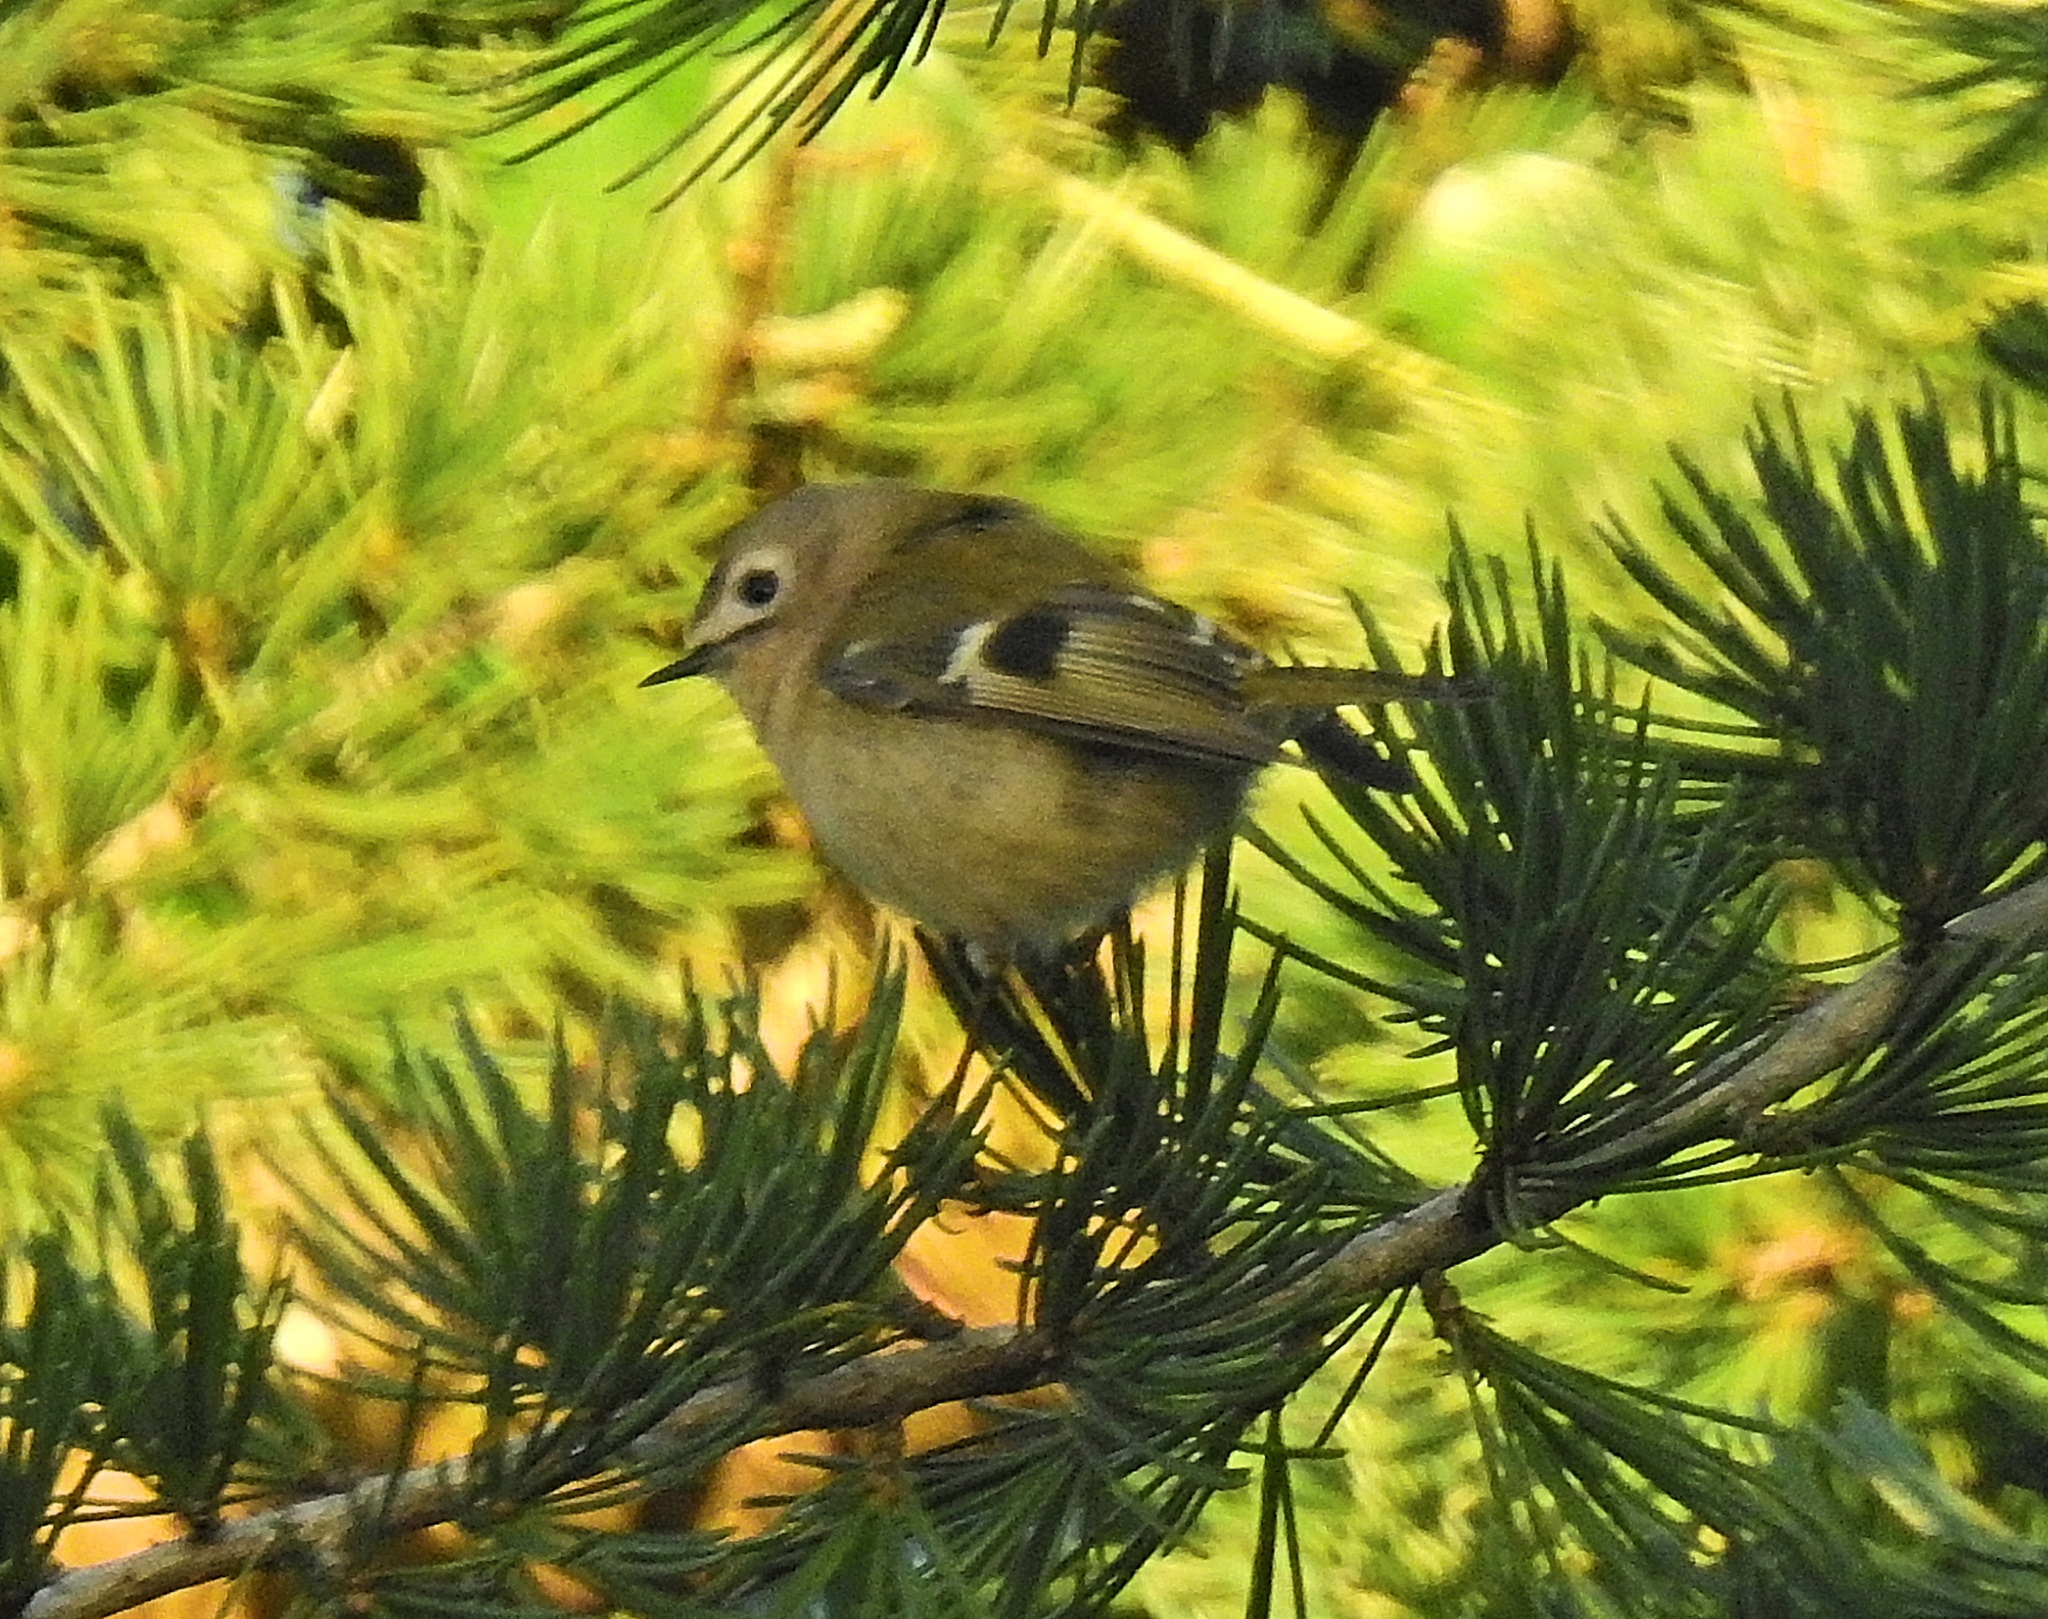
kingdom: Animalia
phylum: Chordata
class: Aves
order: Passeriformes
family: Regulidae
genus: Regulus
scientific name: Regulus regulus
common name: Goldcrest
